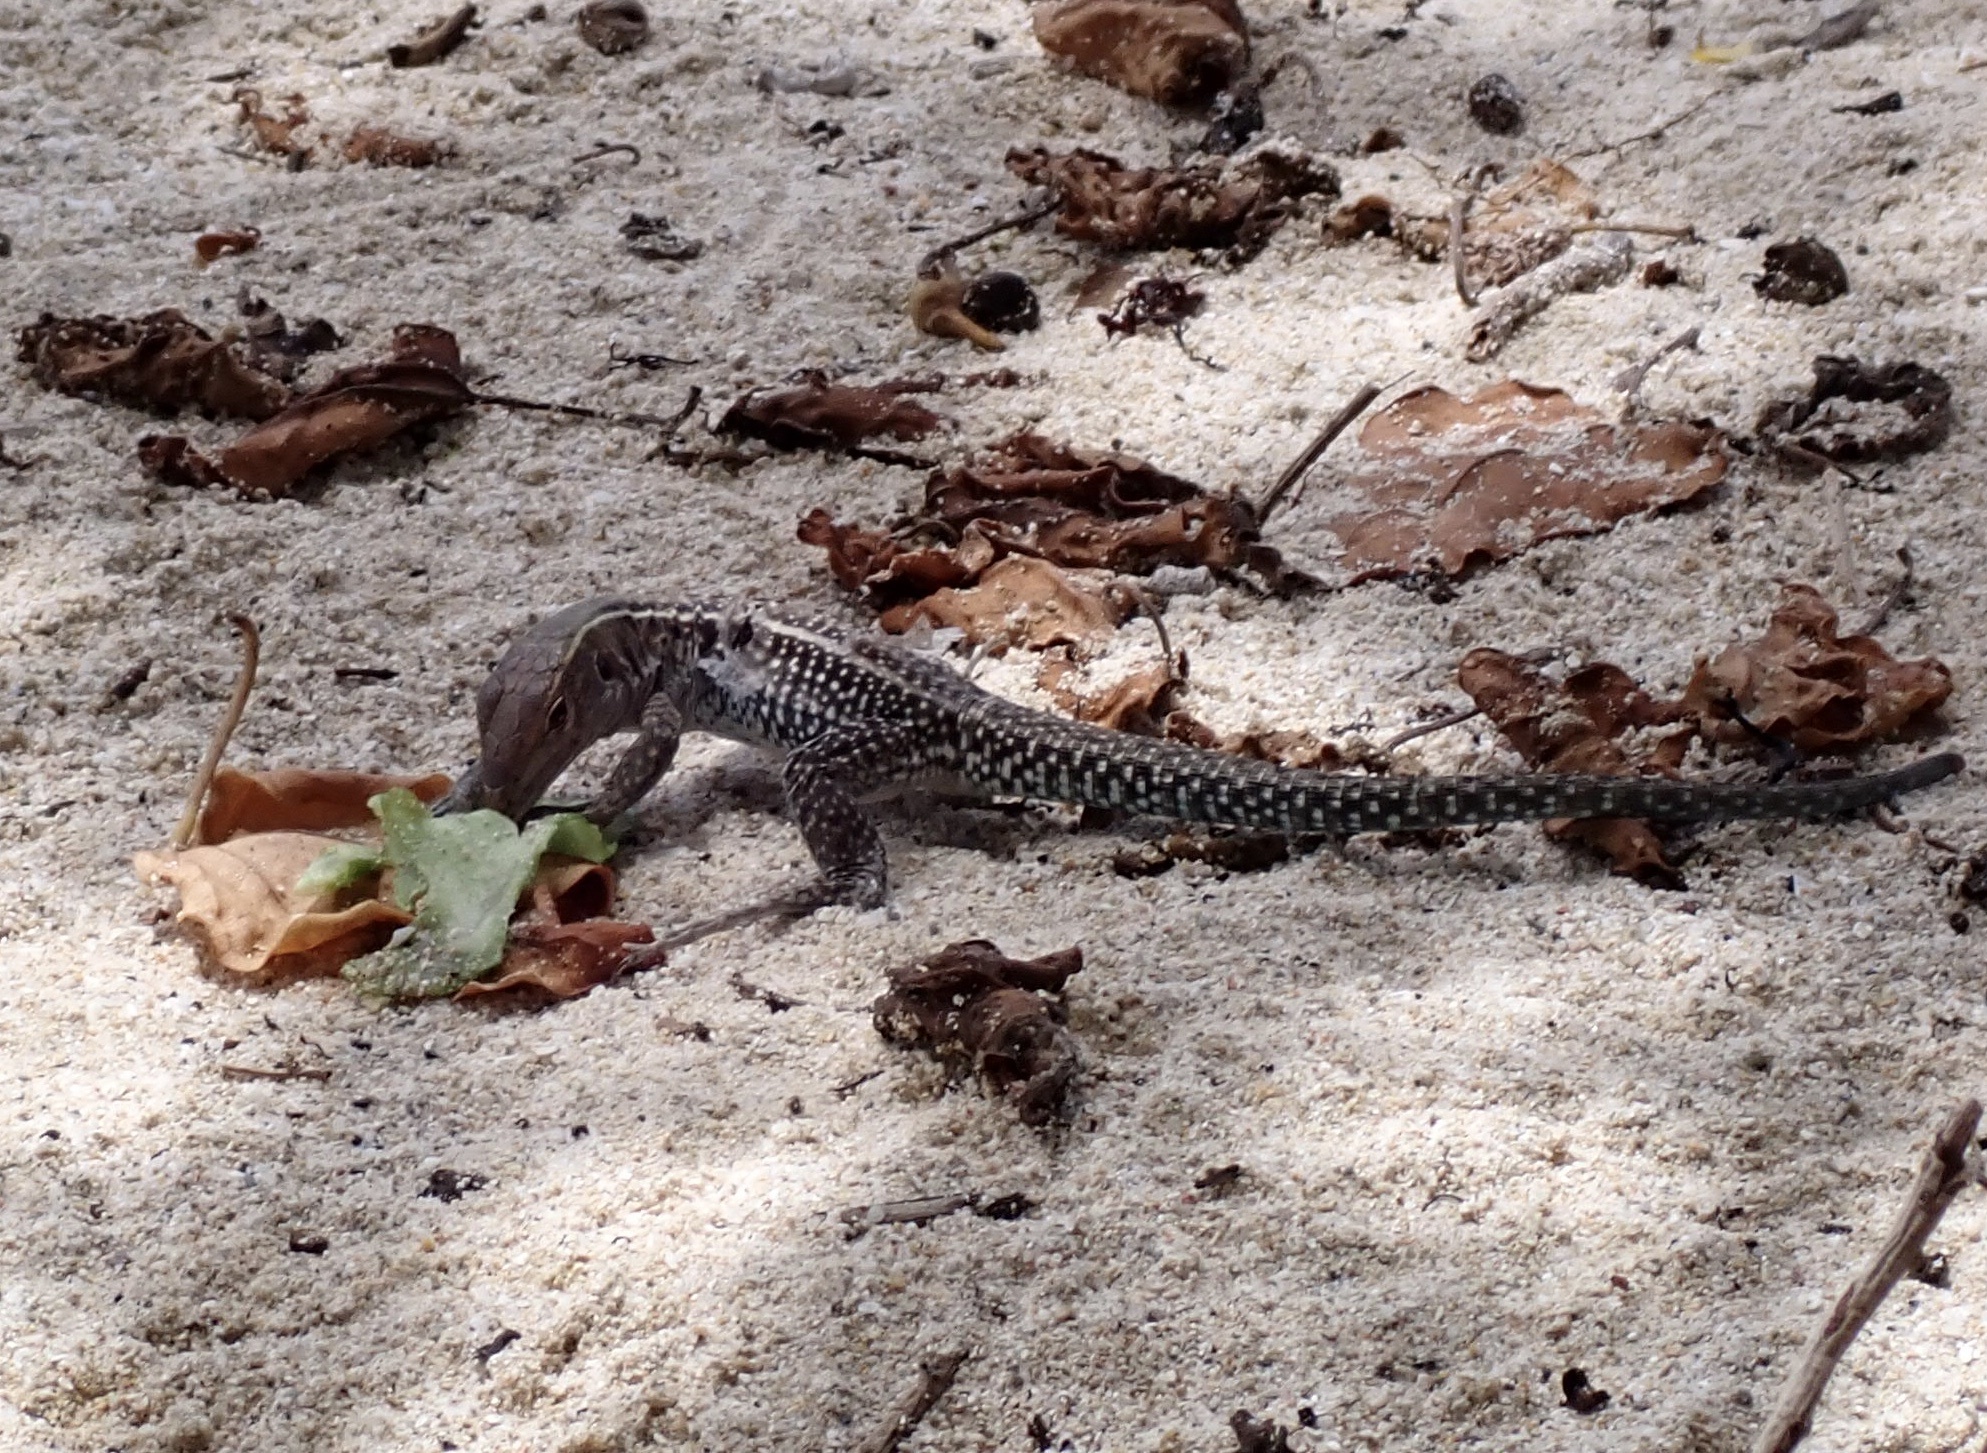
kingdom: Animalia
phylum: Chordata
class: Squamata
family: Teiidae
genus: Pholidoscelis
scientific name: Pholidoscelis exsul
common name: Common puerto rican ameiva
